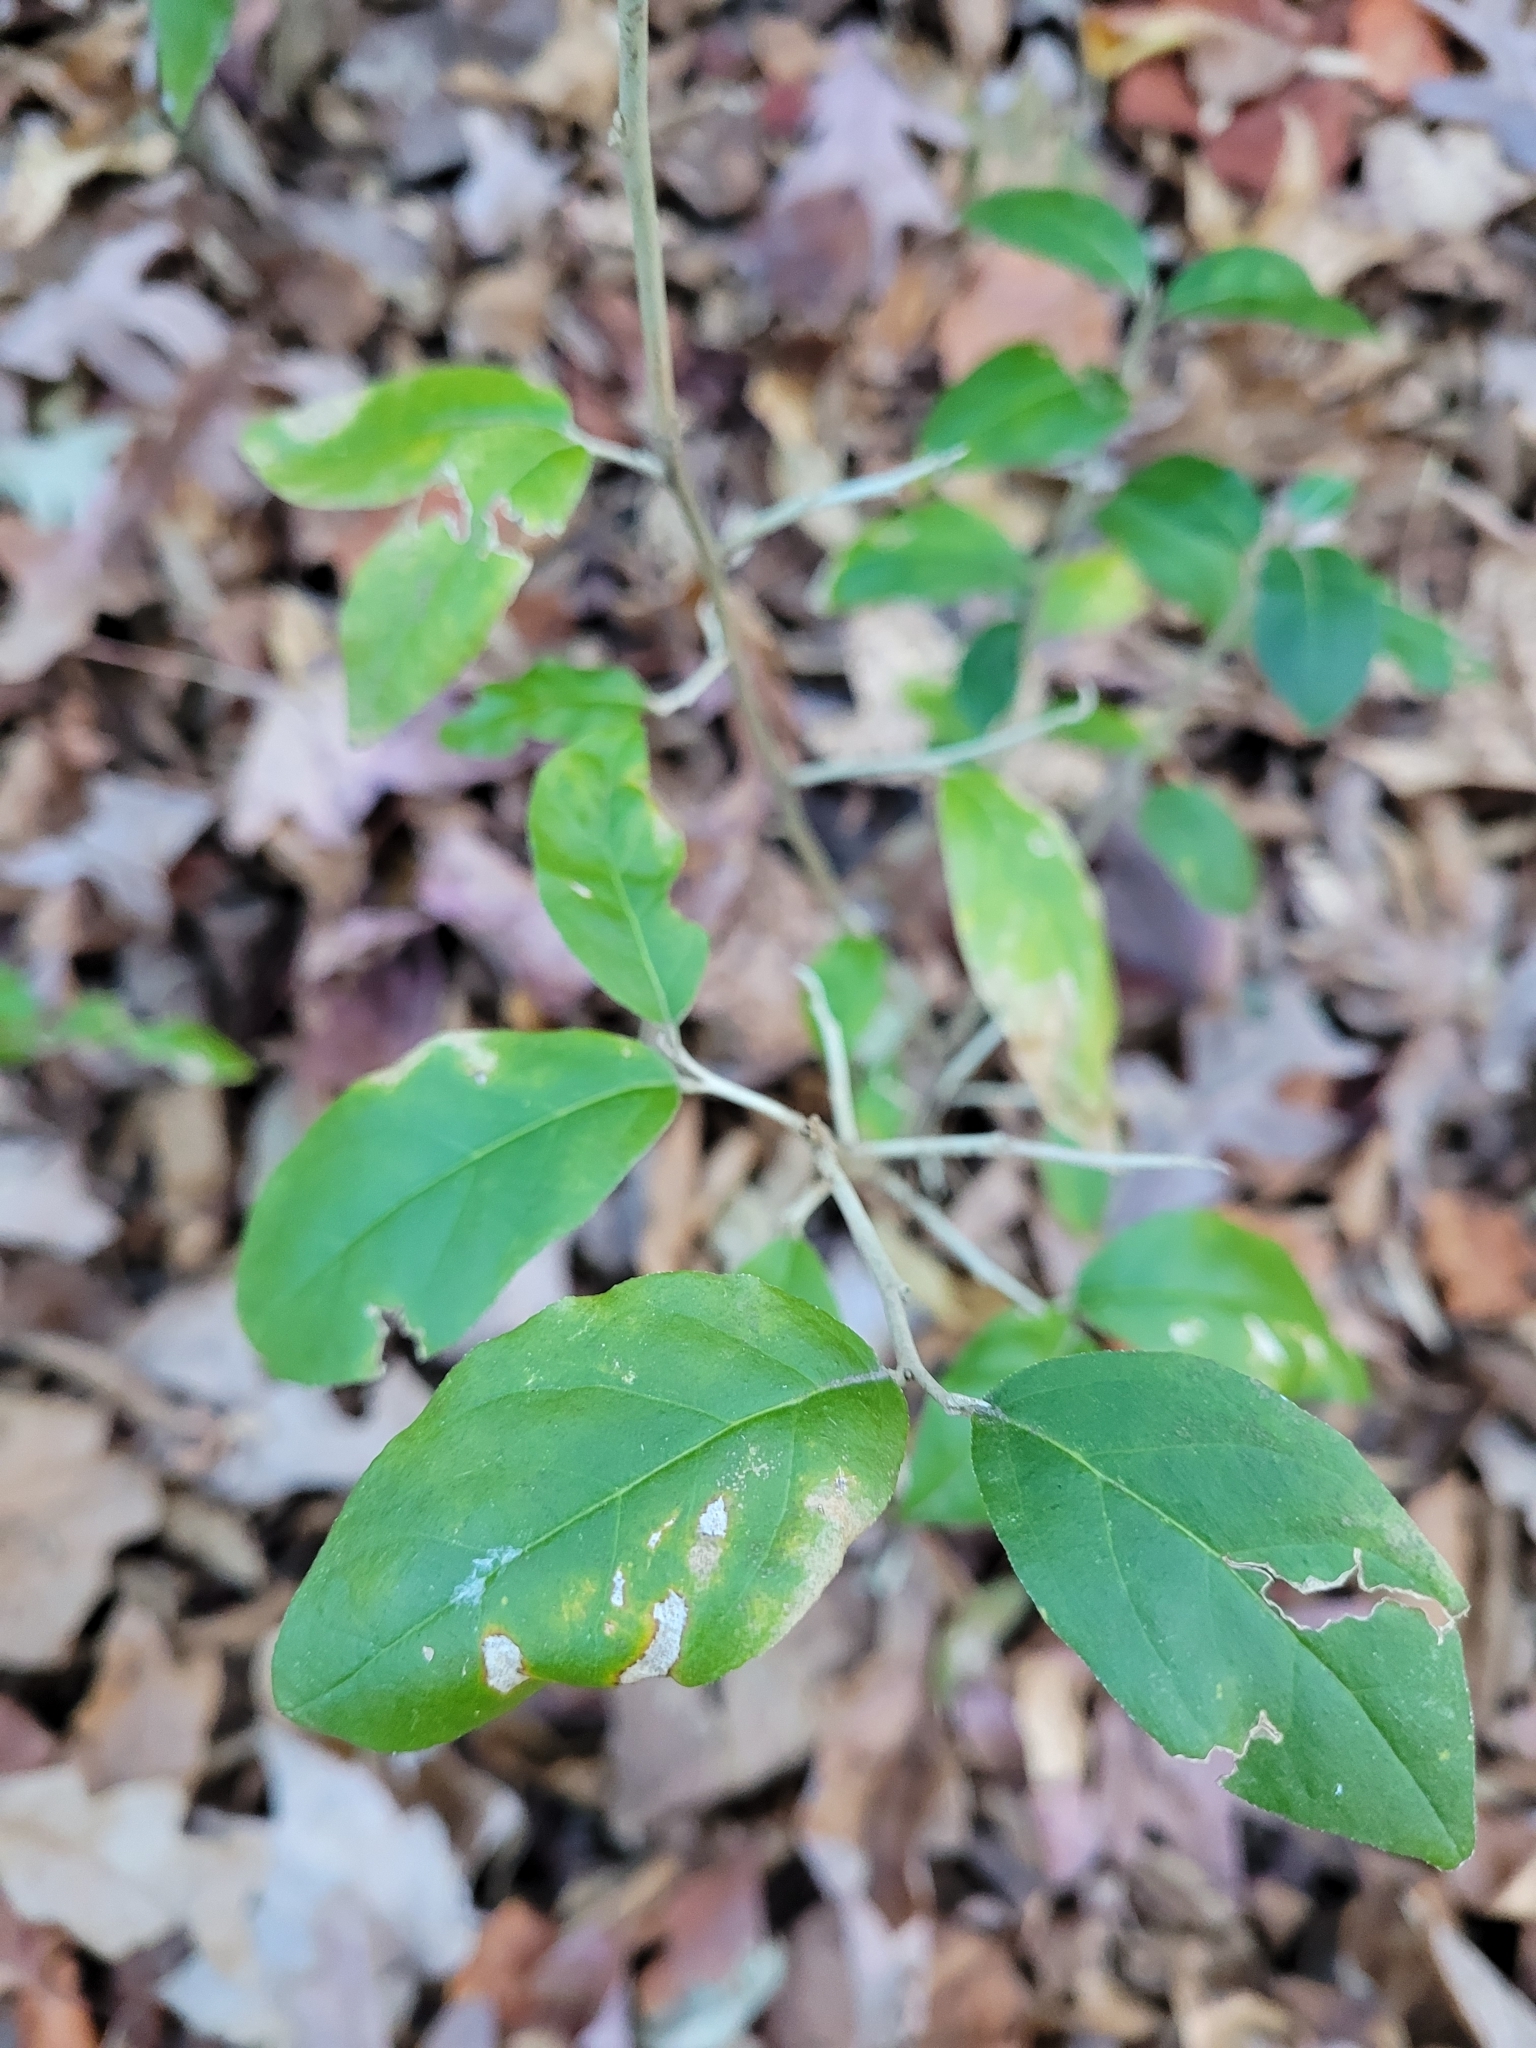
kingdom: Plantae
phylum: Tracheophyta
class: Magnoliopsida
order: Rosales
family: Elaeagnaceae
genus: Elaeagnus
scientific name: Elaeagnus umbellata
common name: Autumn olive
